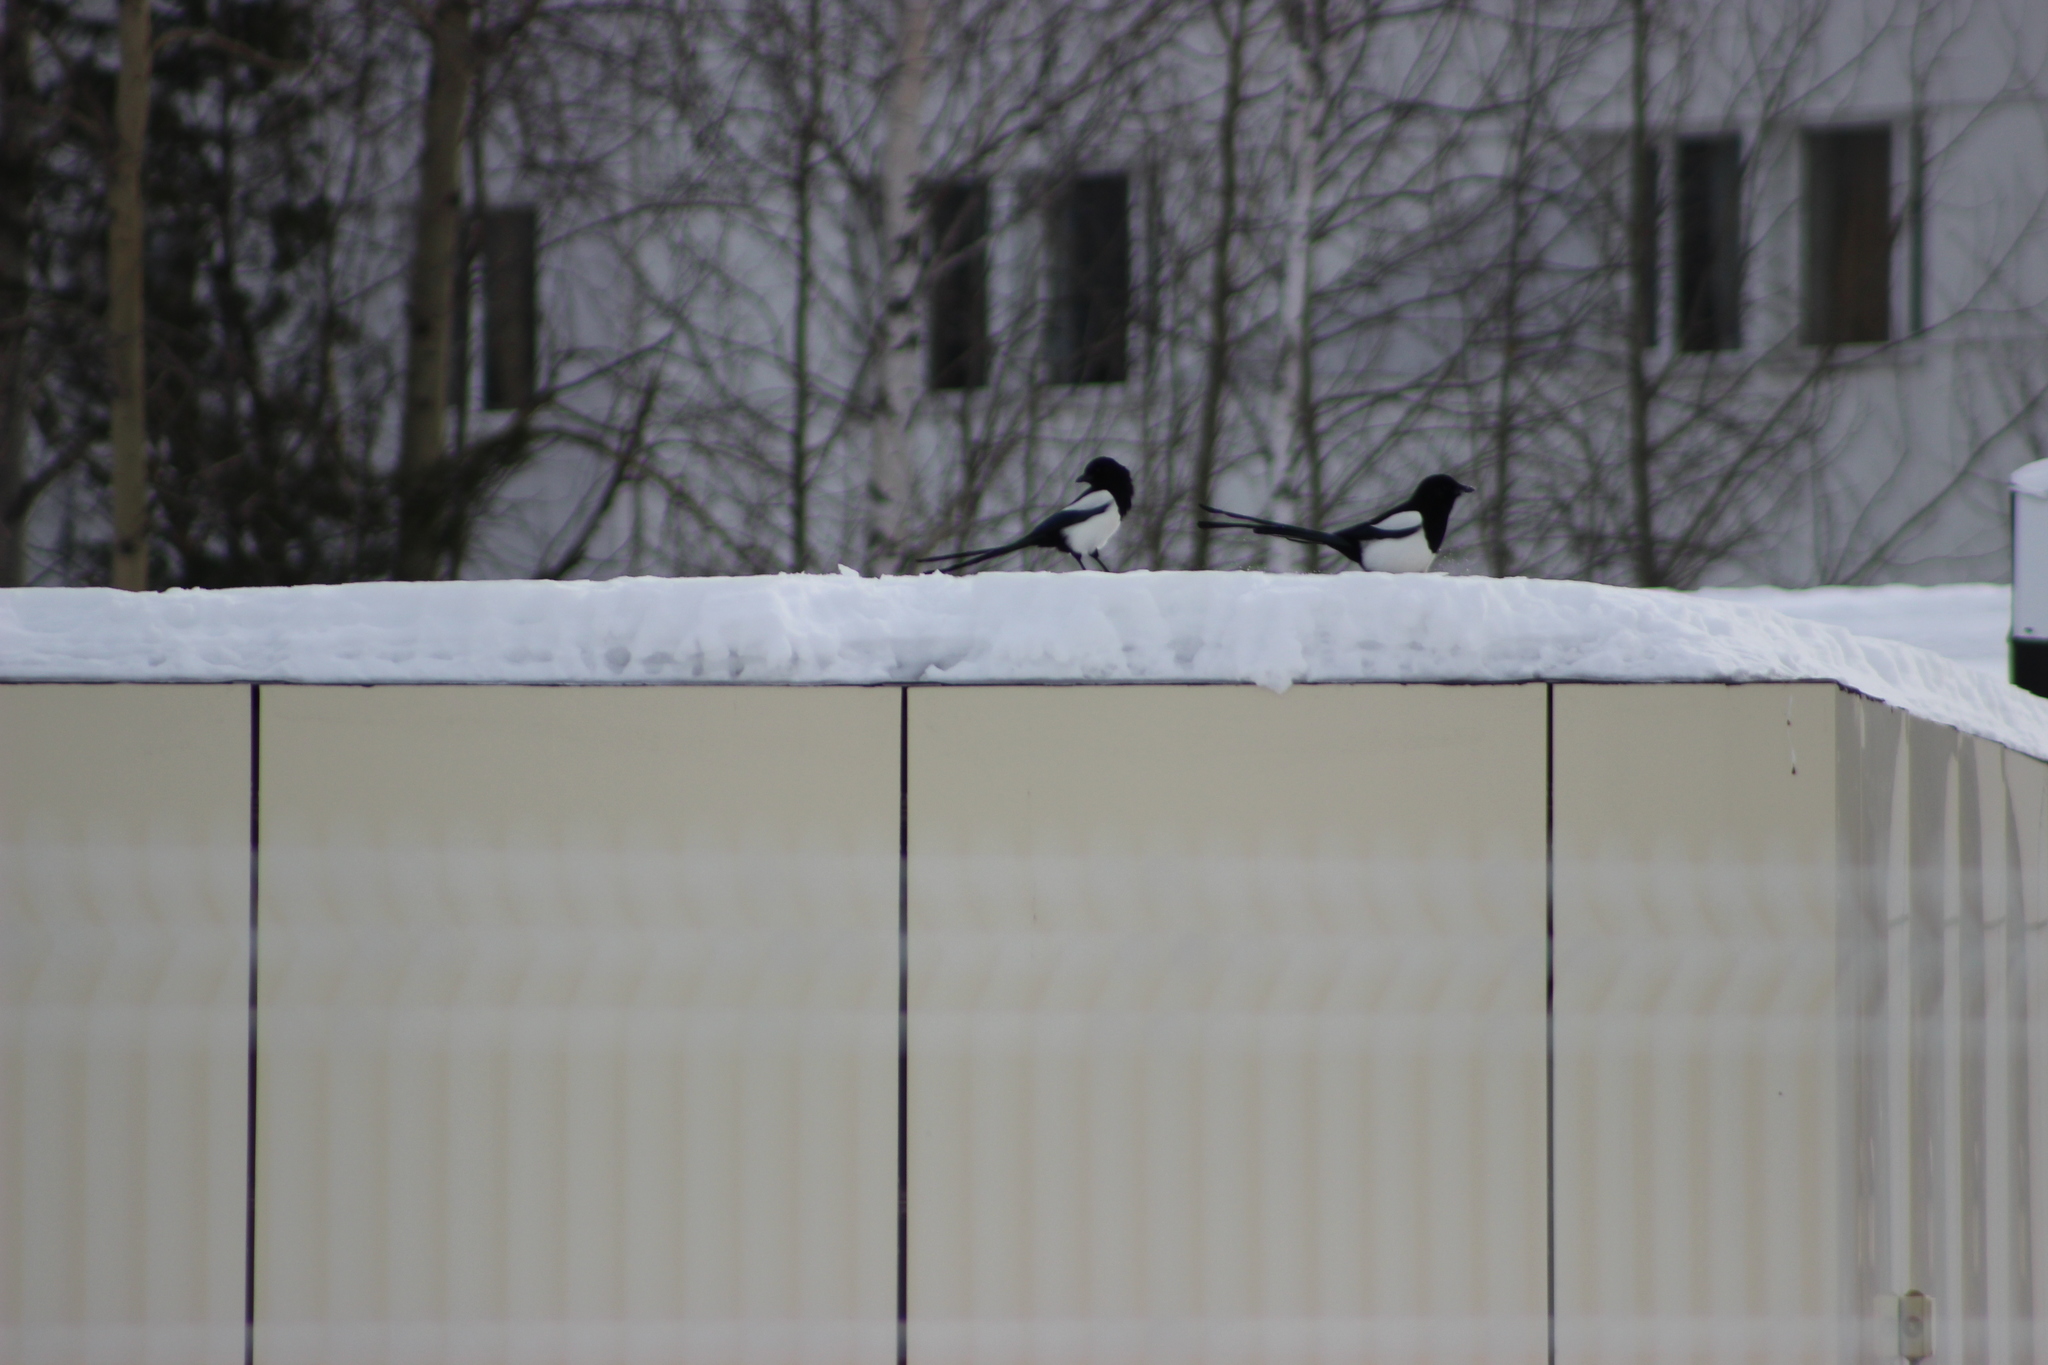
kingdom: Animalia
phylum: Chordata
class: Aves
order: Passeriformes
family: Corvidae
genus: Pica
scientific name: Pica pica
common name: Eurasian magpie
